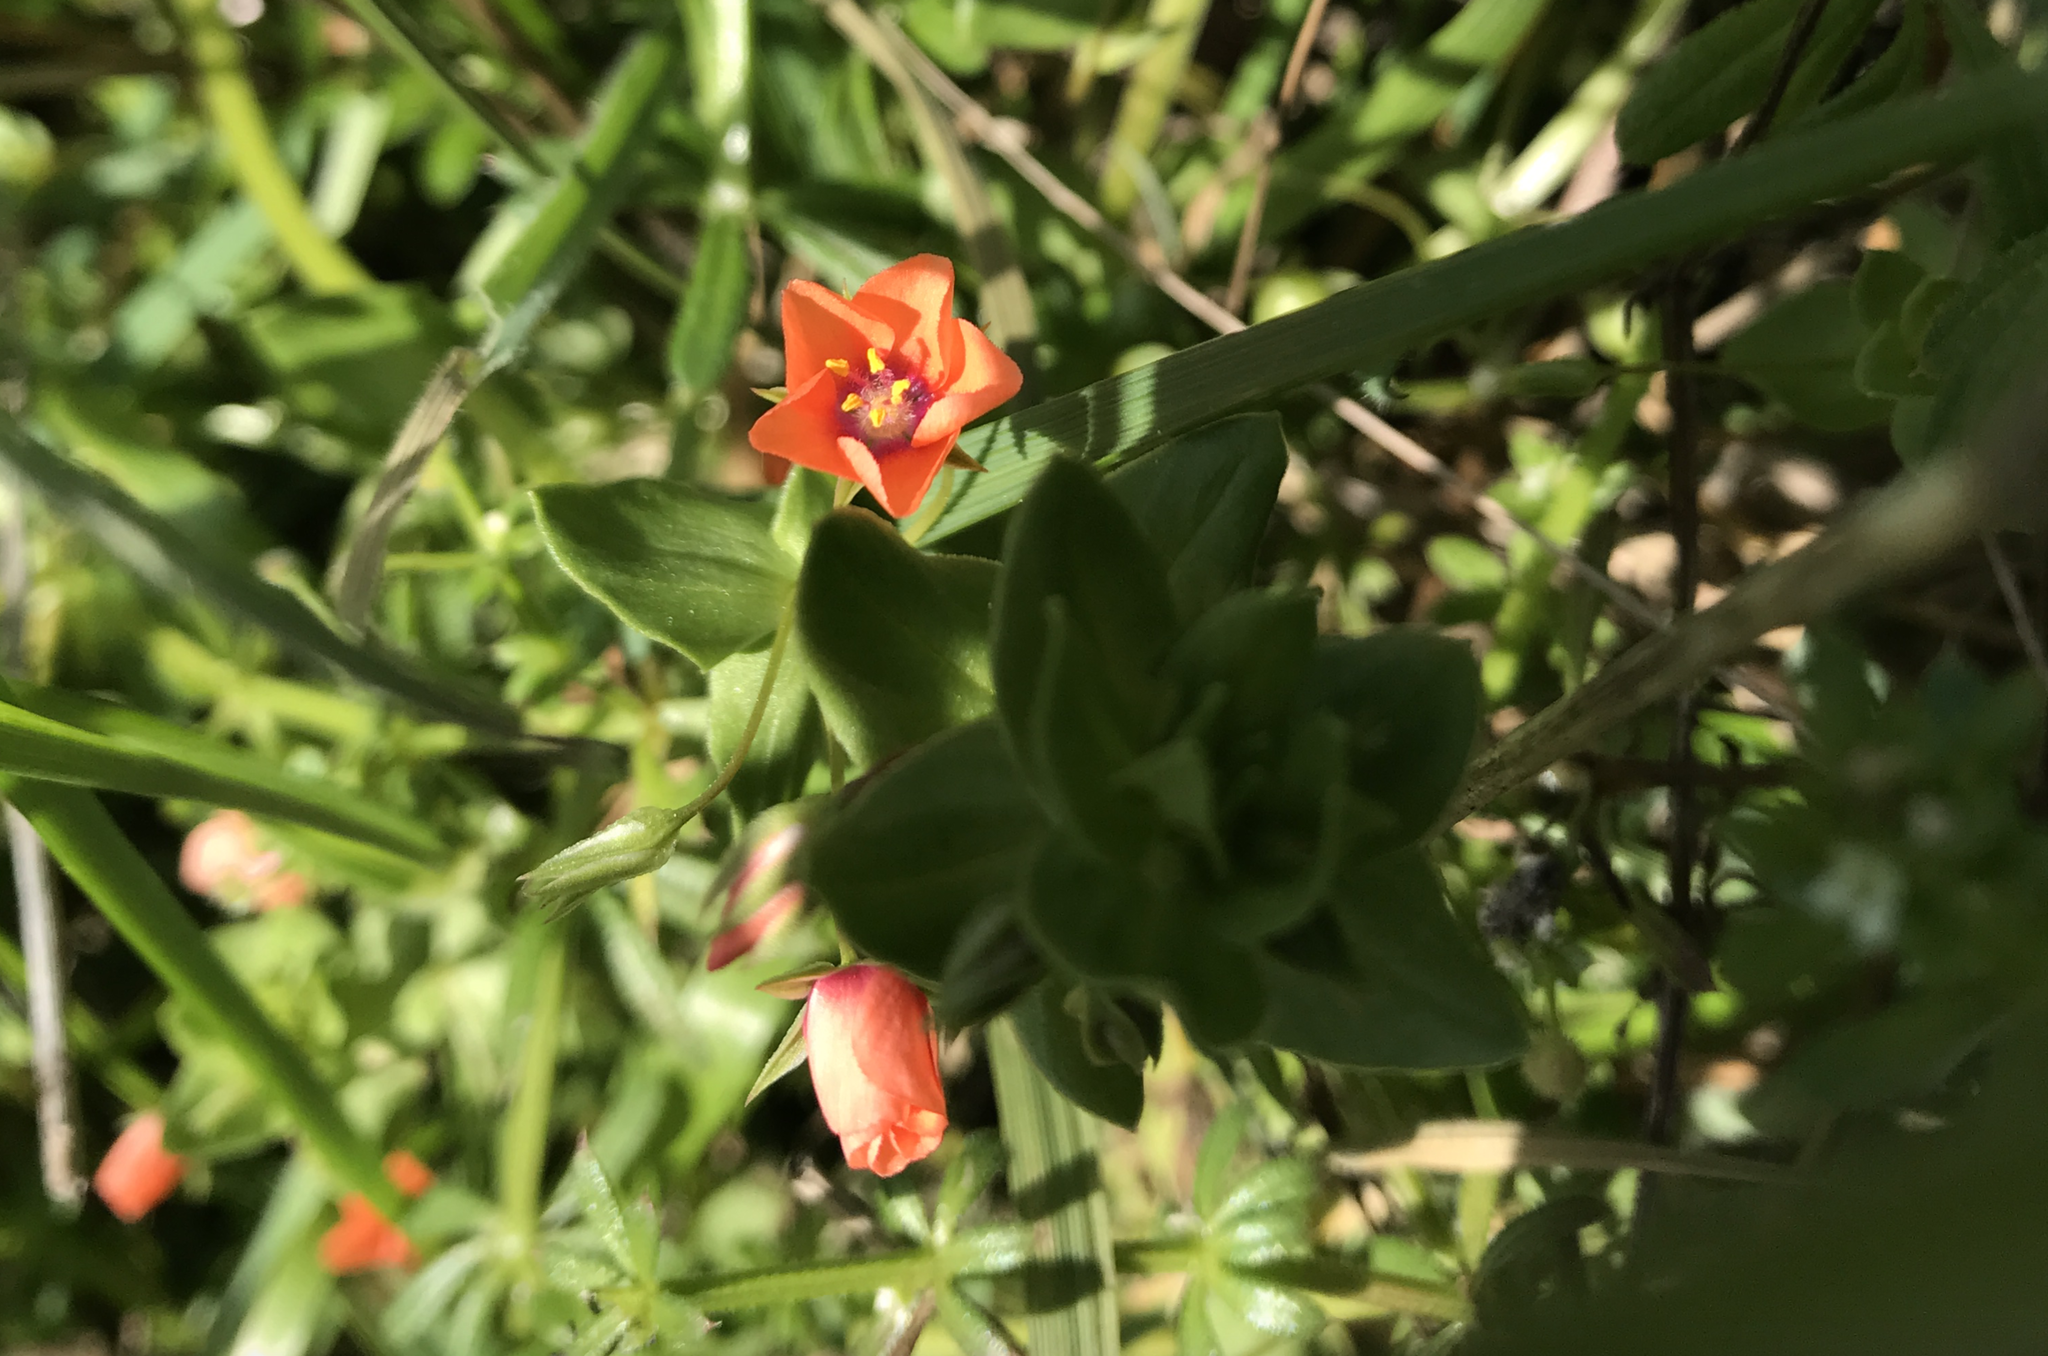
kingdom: Plantae
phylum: Tracheophyta
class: Magnoliopsida
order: Ericales
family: Primulaceae
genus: Lysimachia
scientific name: Lysimachia arvensis
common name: Scarlet pimpernel
